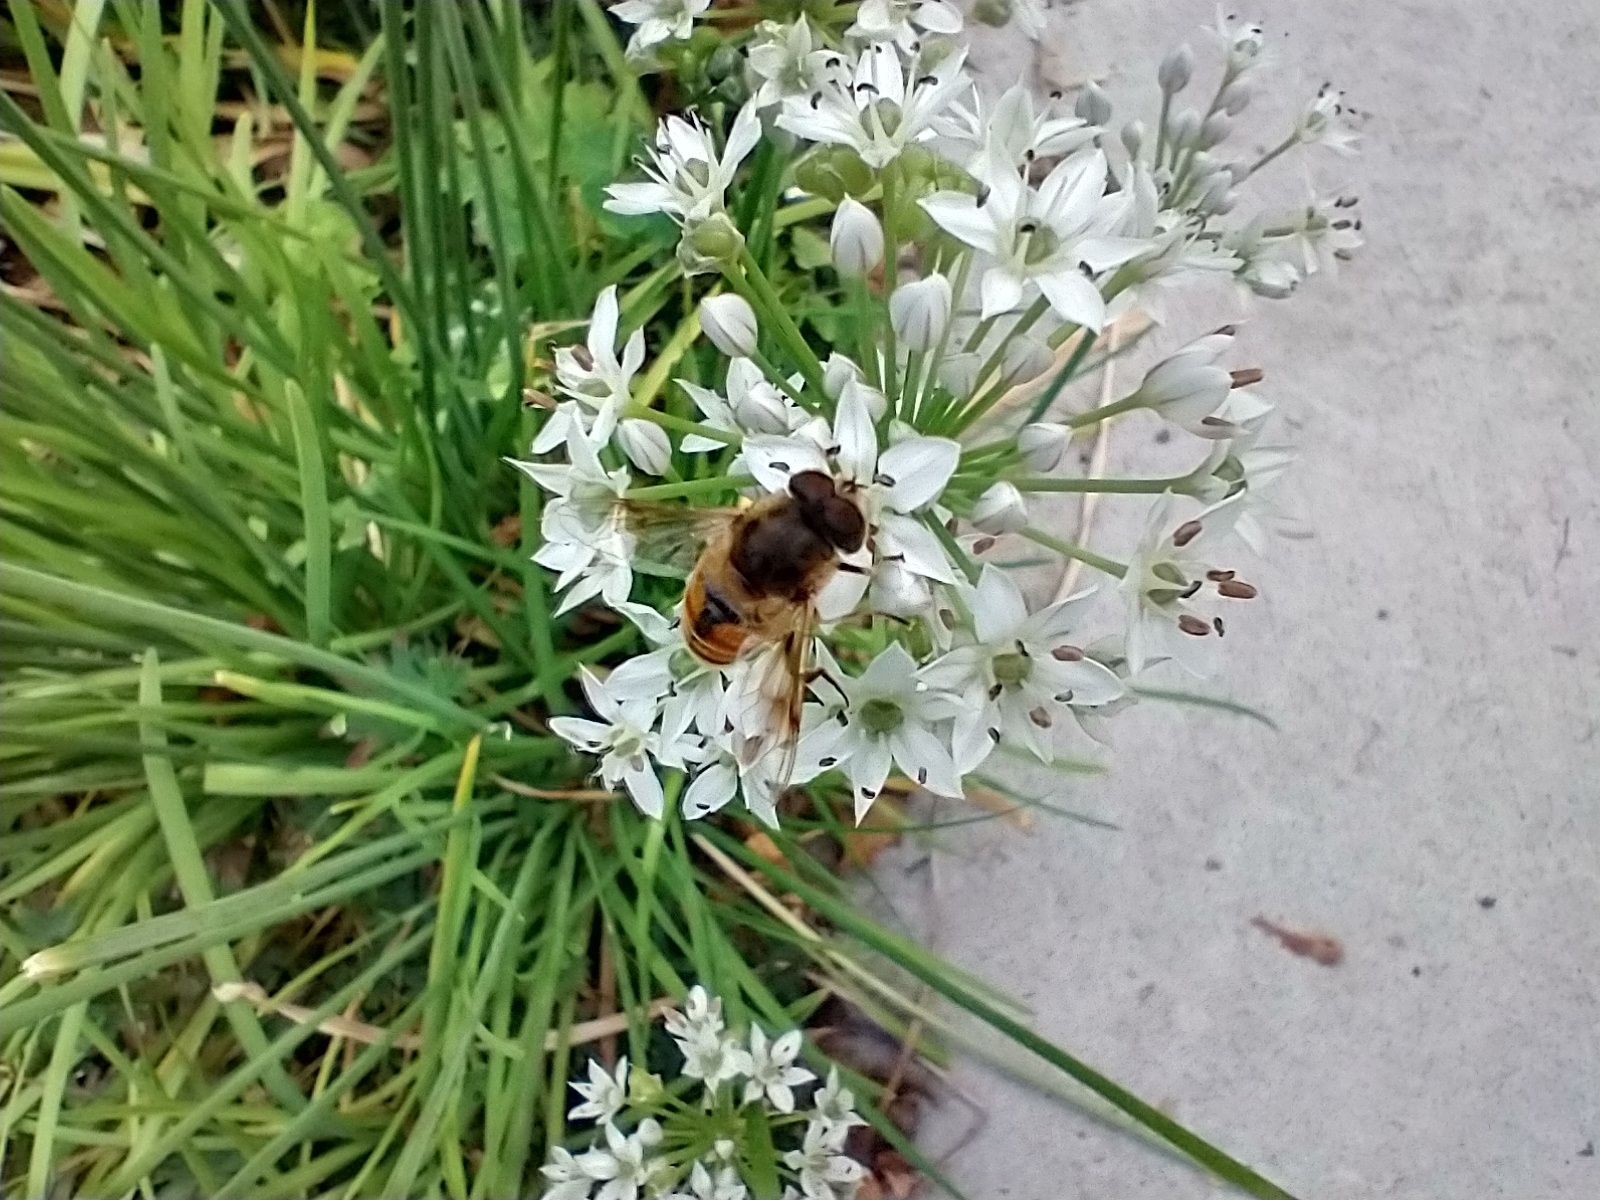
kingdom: Animalia
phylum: Arthropoda
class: Insecta
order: Diptera
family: Syrphidae
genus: Eristalis
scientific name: Eristalis tenax
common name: Drone fly
